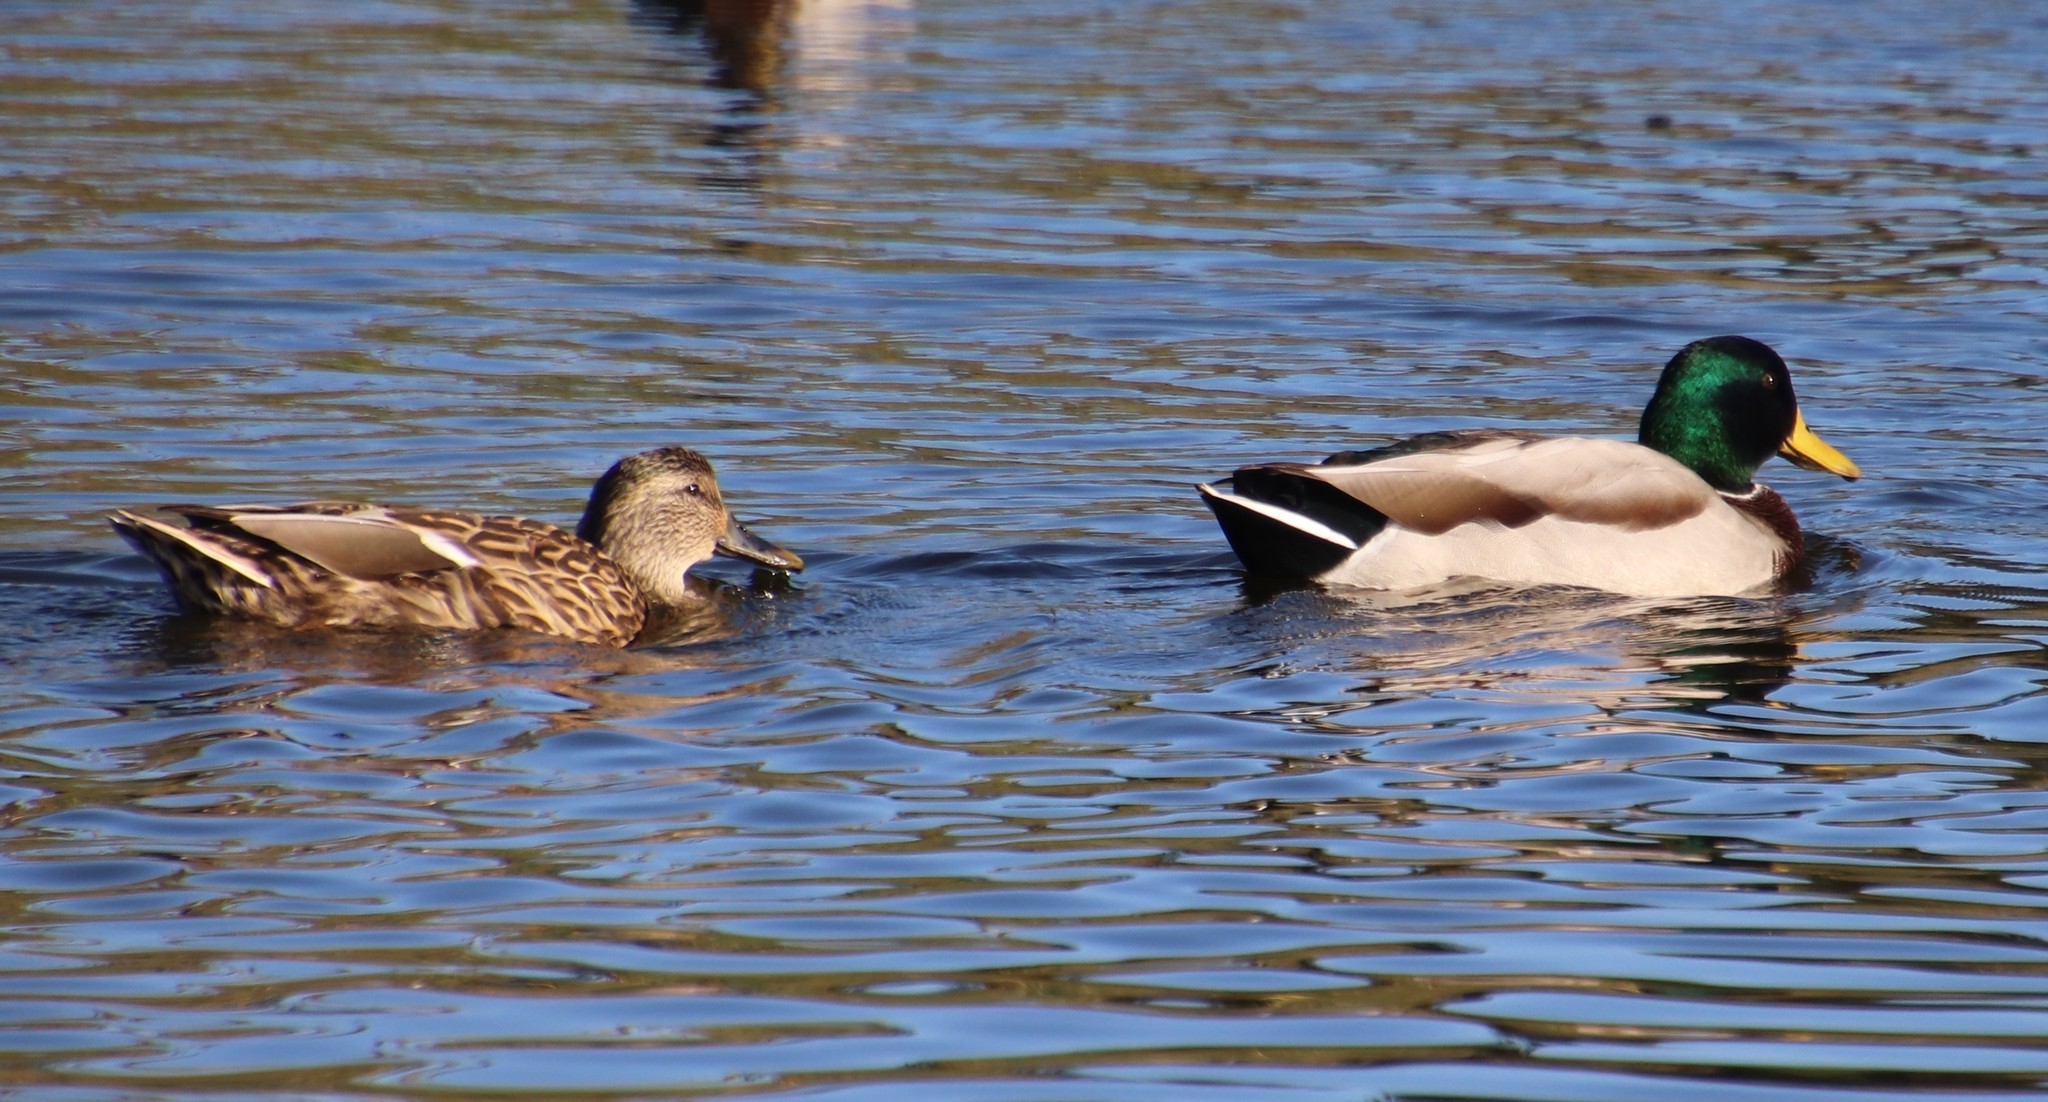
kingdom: Animalia
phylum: Chordata
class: Aves
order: Anseriformes
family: Anatidae
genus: Anas
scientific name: Anas platyrhynchos
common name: Mallard
